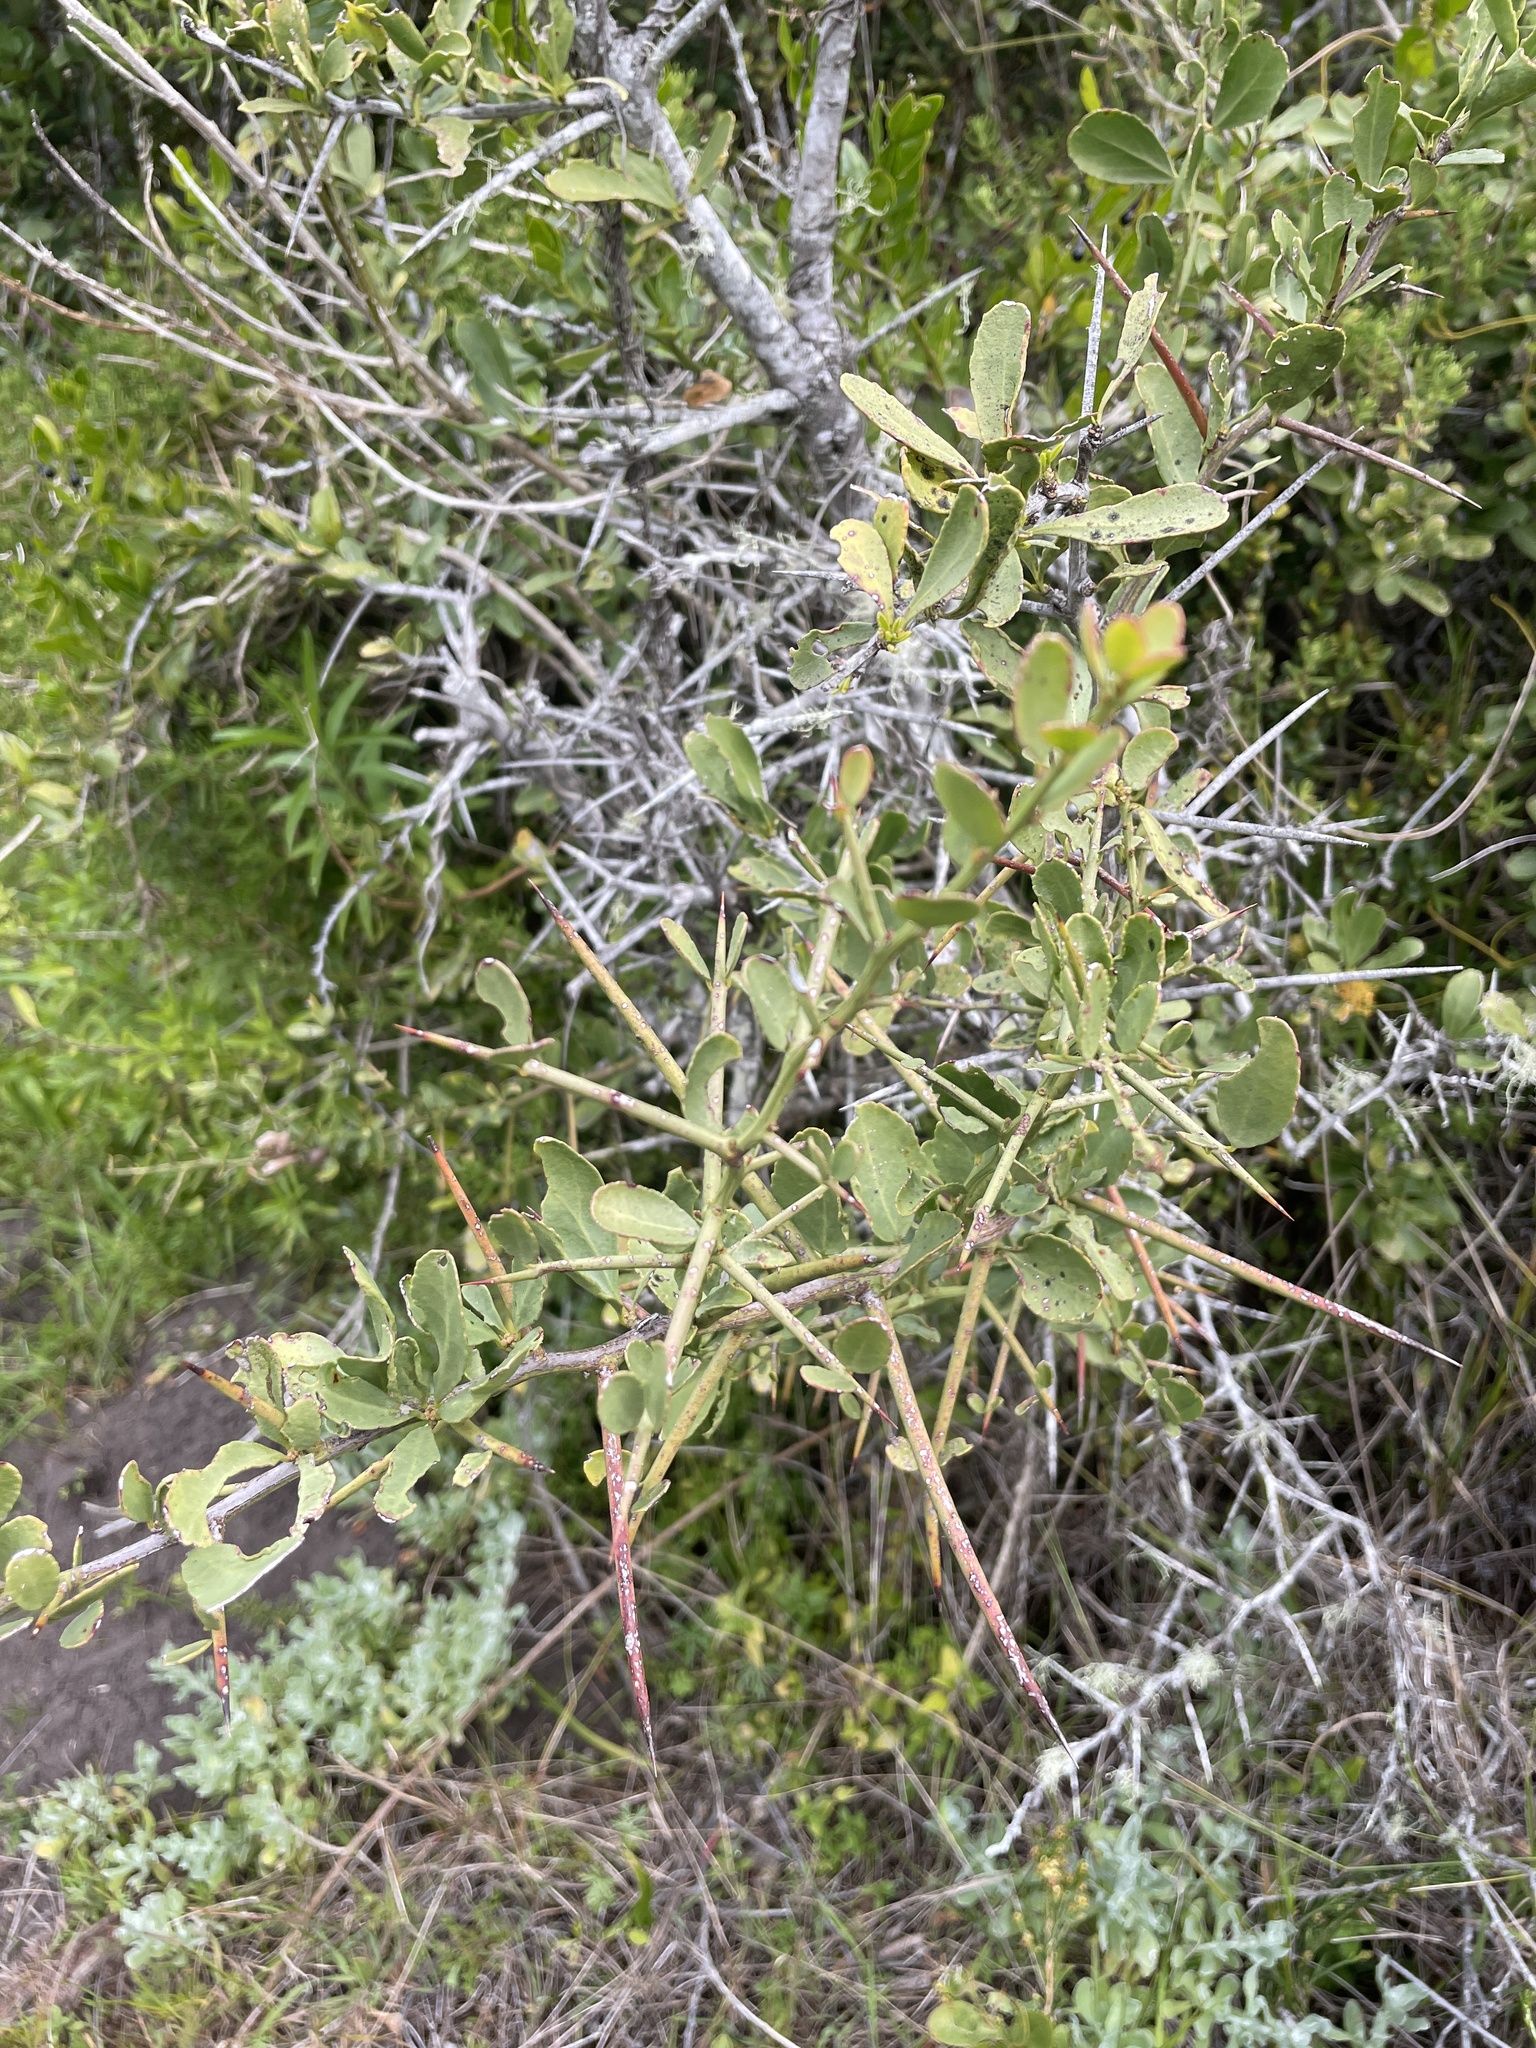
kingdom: Plantae
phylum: Tracheophyta
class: Magnoliopsida
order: Celastrales
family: Celastraceae
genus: Gymnosporia
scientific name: Gymnosporia buxifolia
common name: Common spike-thorn
